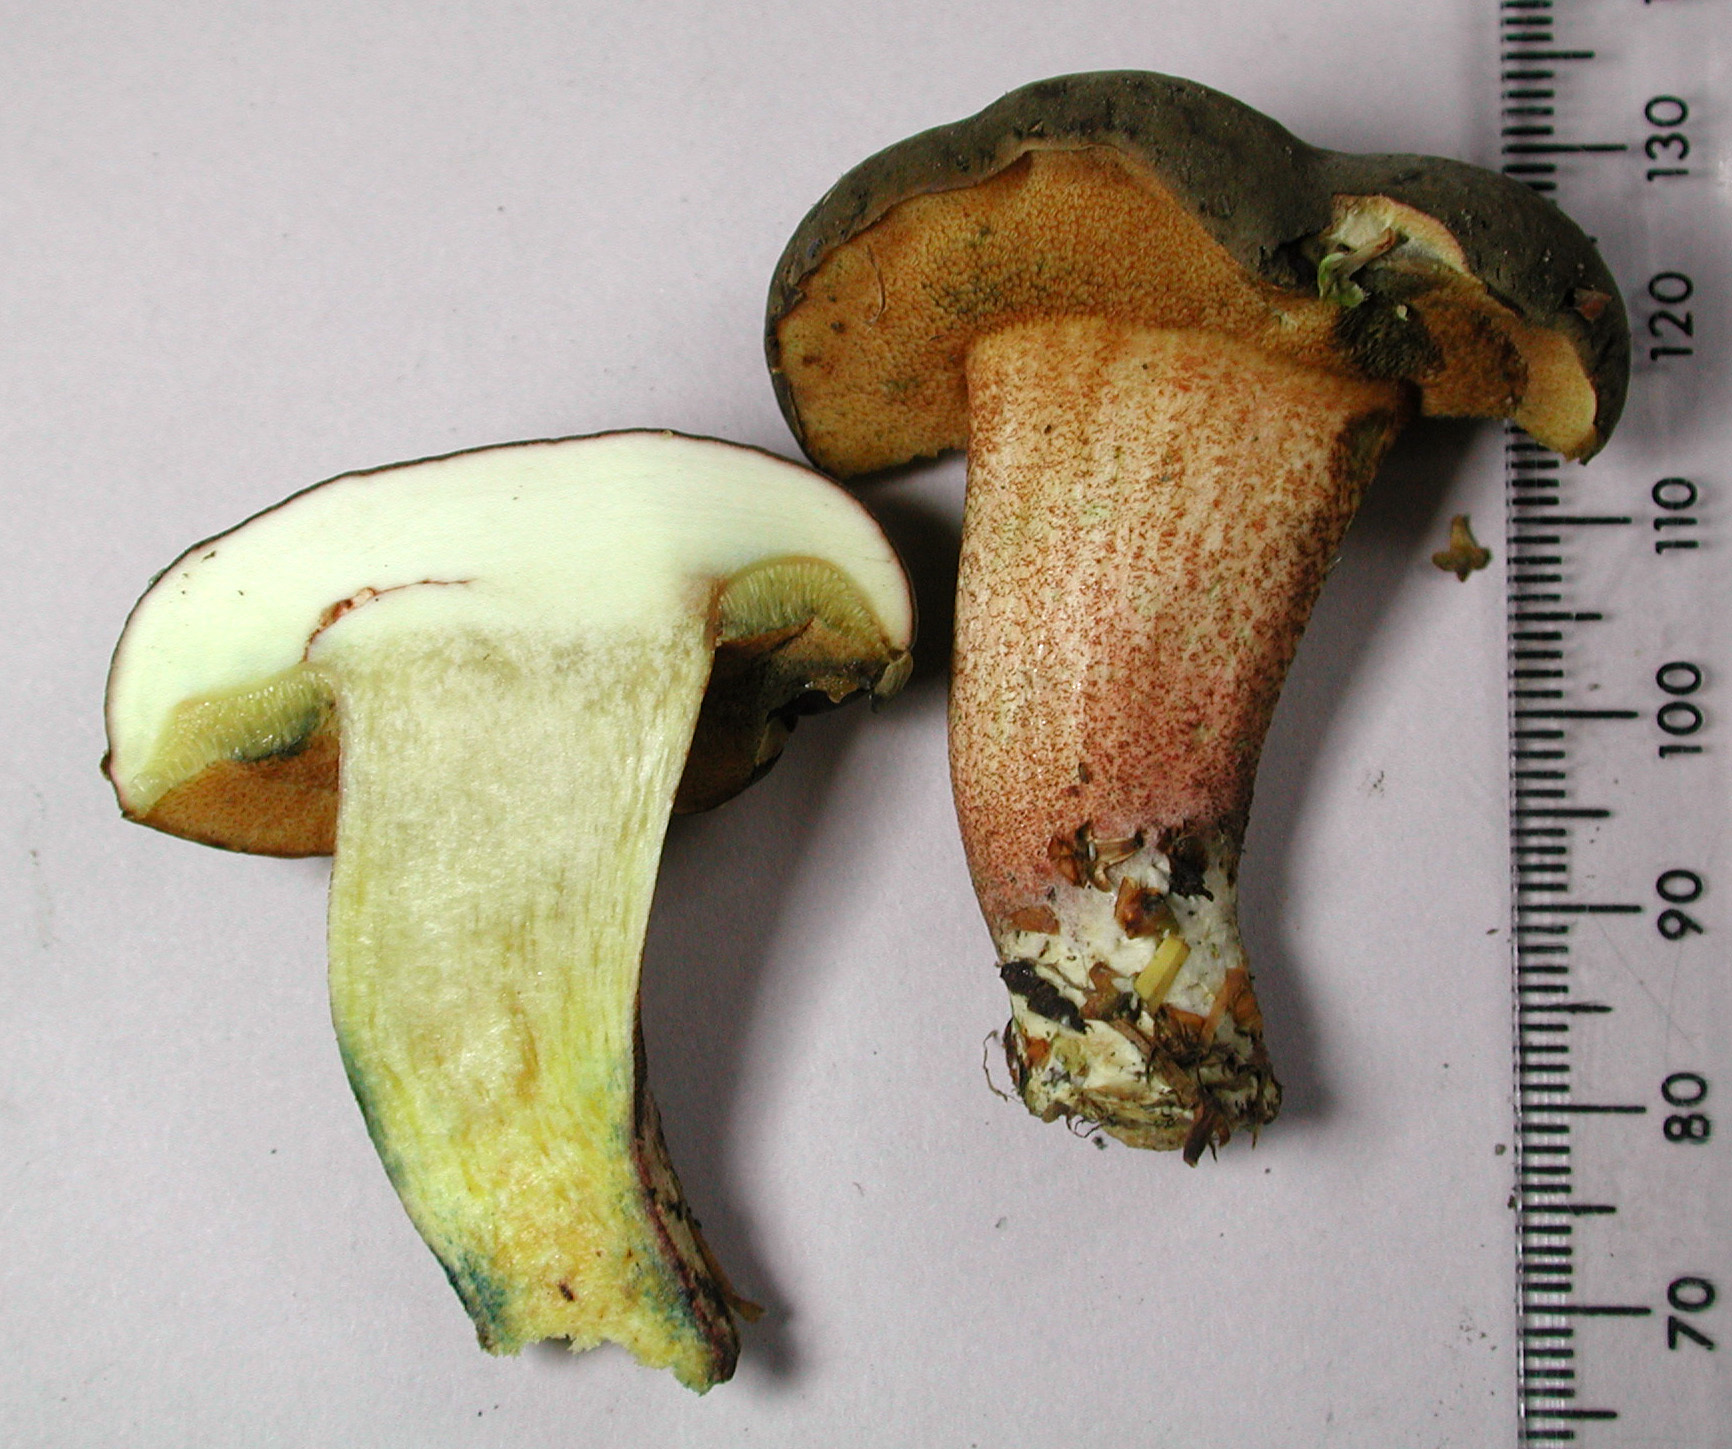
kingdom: Fungi
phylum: Basidiomycota
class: Agaricomycetes
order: Boletales
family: Boletaceae
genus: Xerocomellus
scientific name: Xerocomellus cisalpinus
